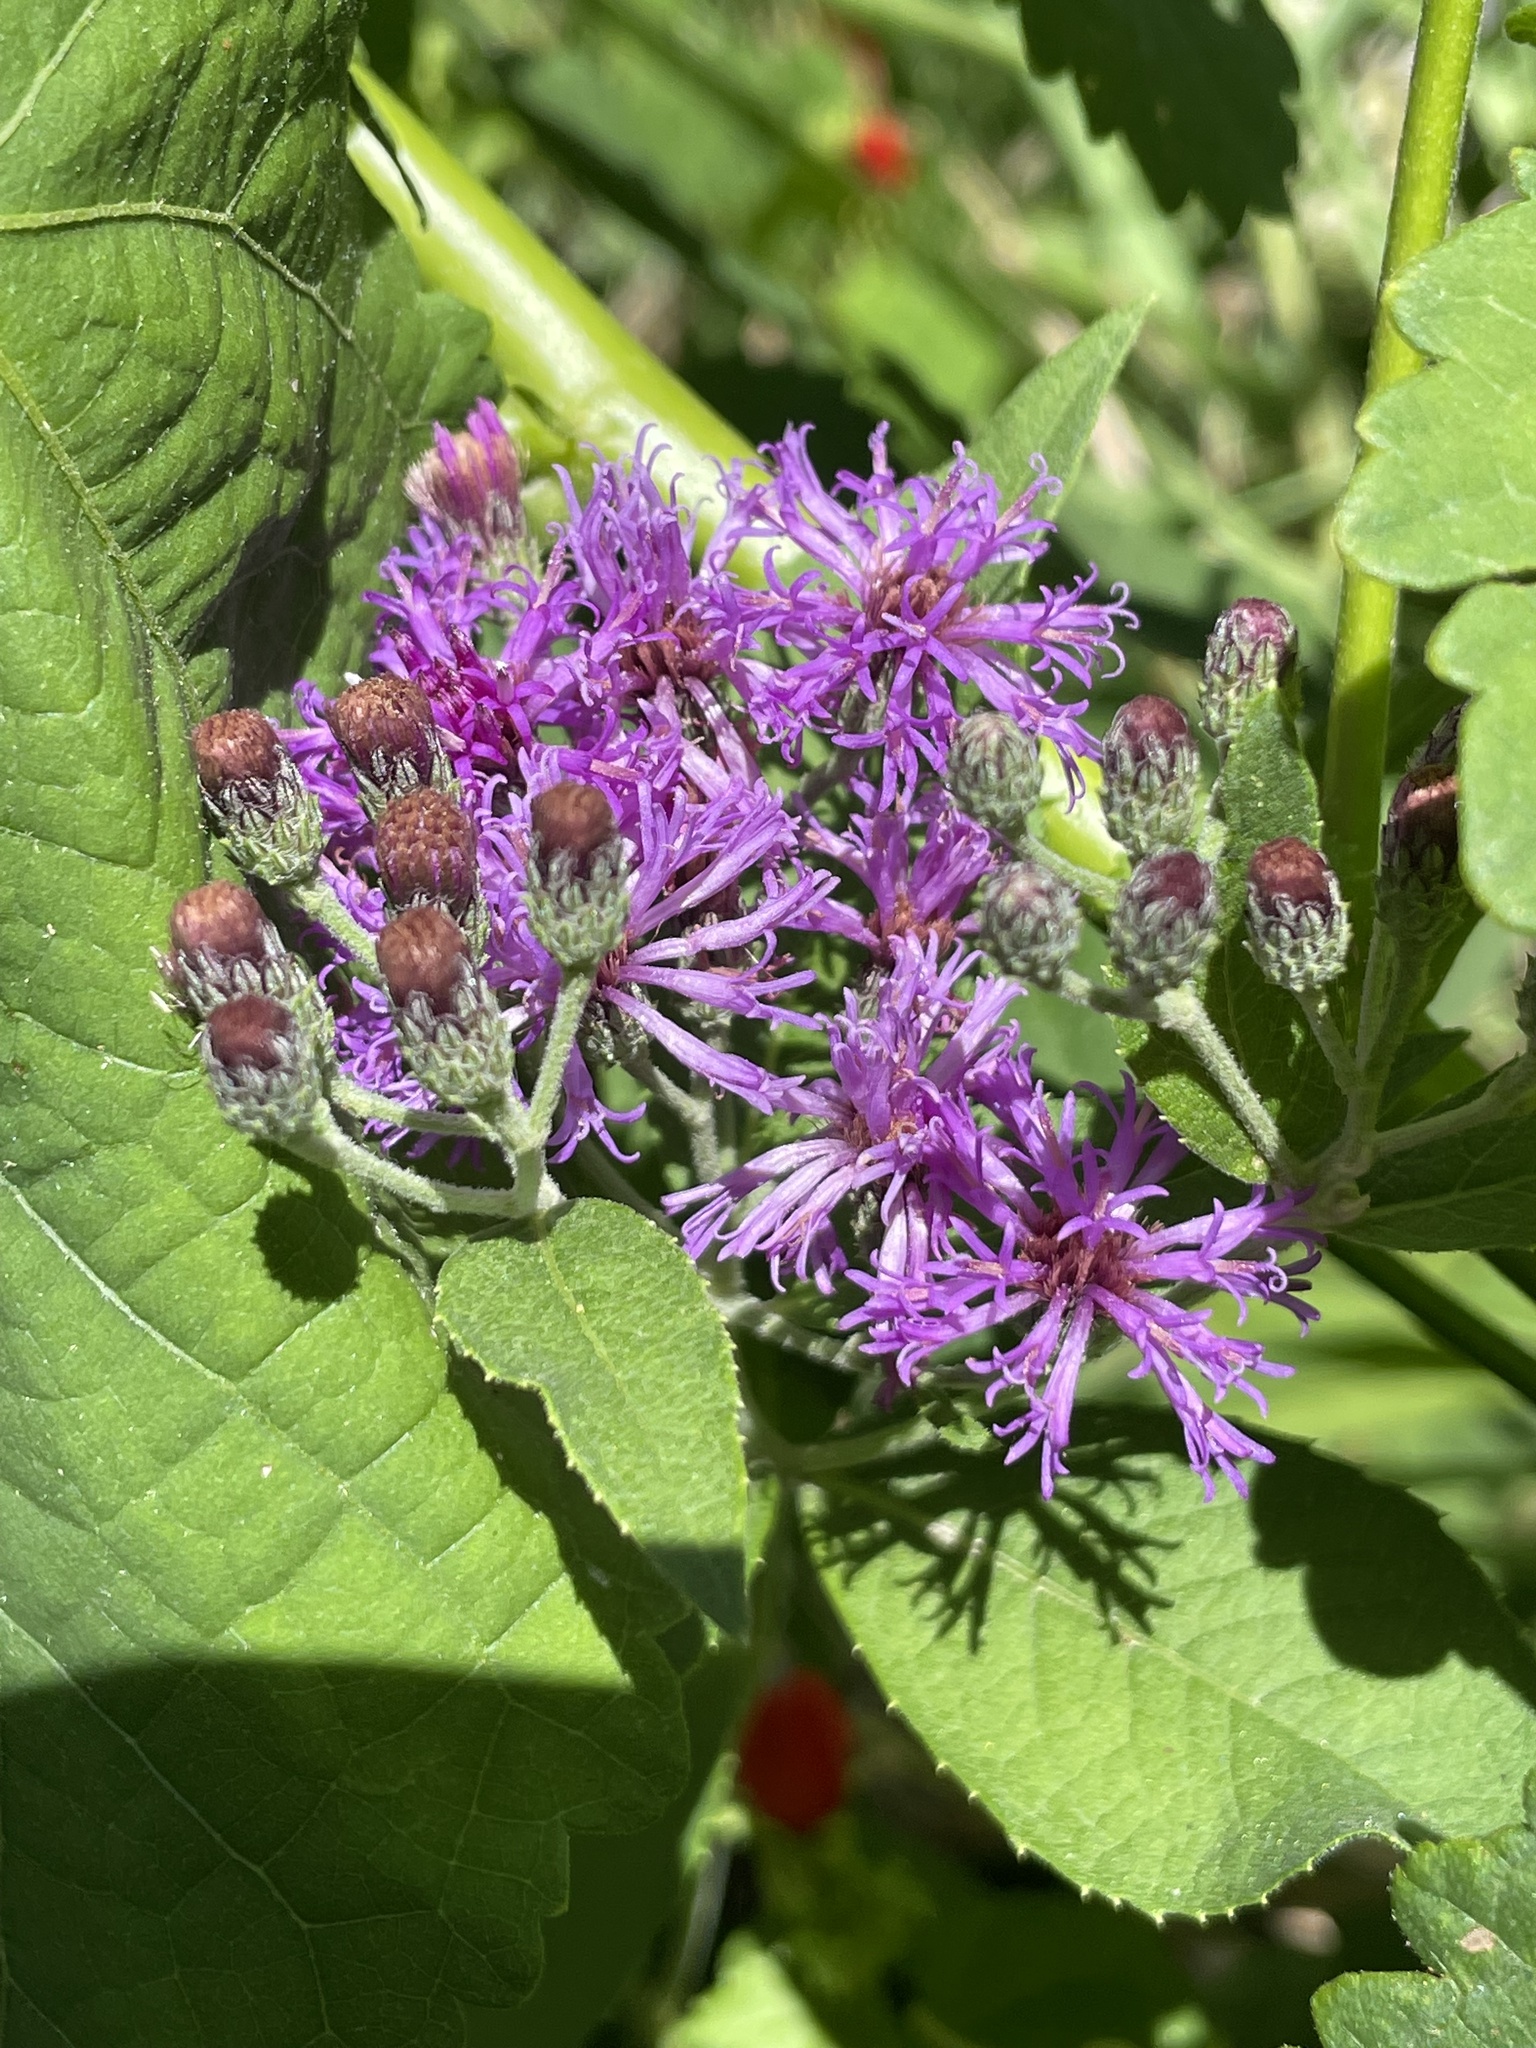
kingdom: Plantae
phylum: Tracheophyta
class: Magnoliopsida
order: Asterales
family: Asteraceae
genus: Vernonia
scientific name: Vernonia baldwinii
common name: Western ironweed
